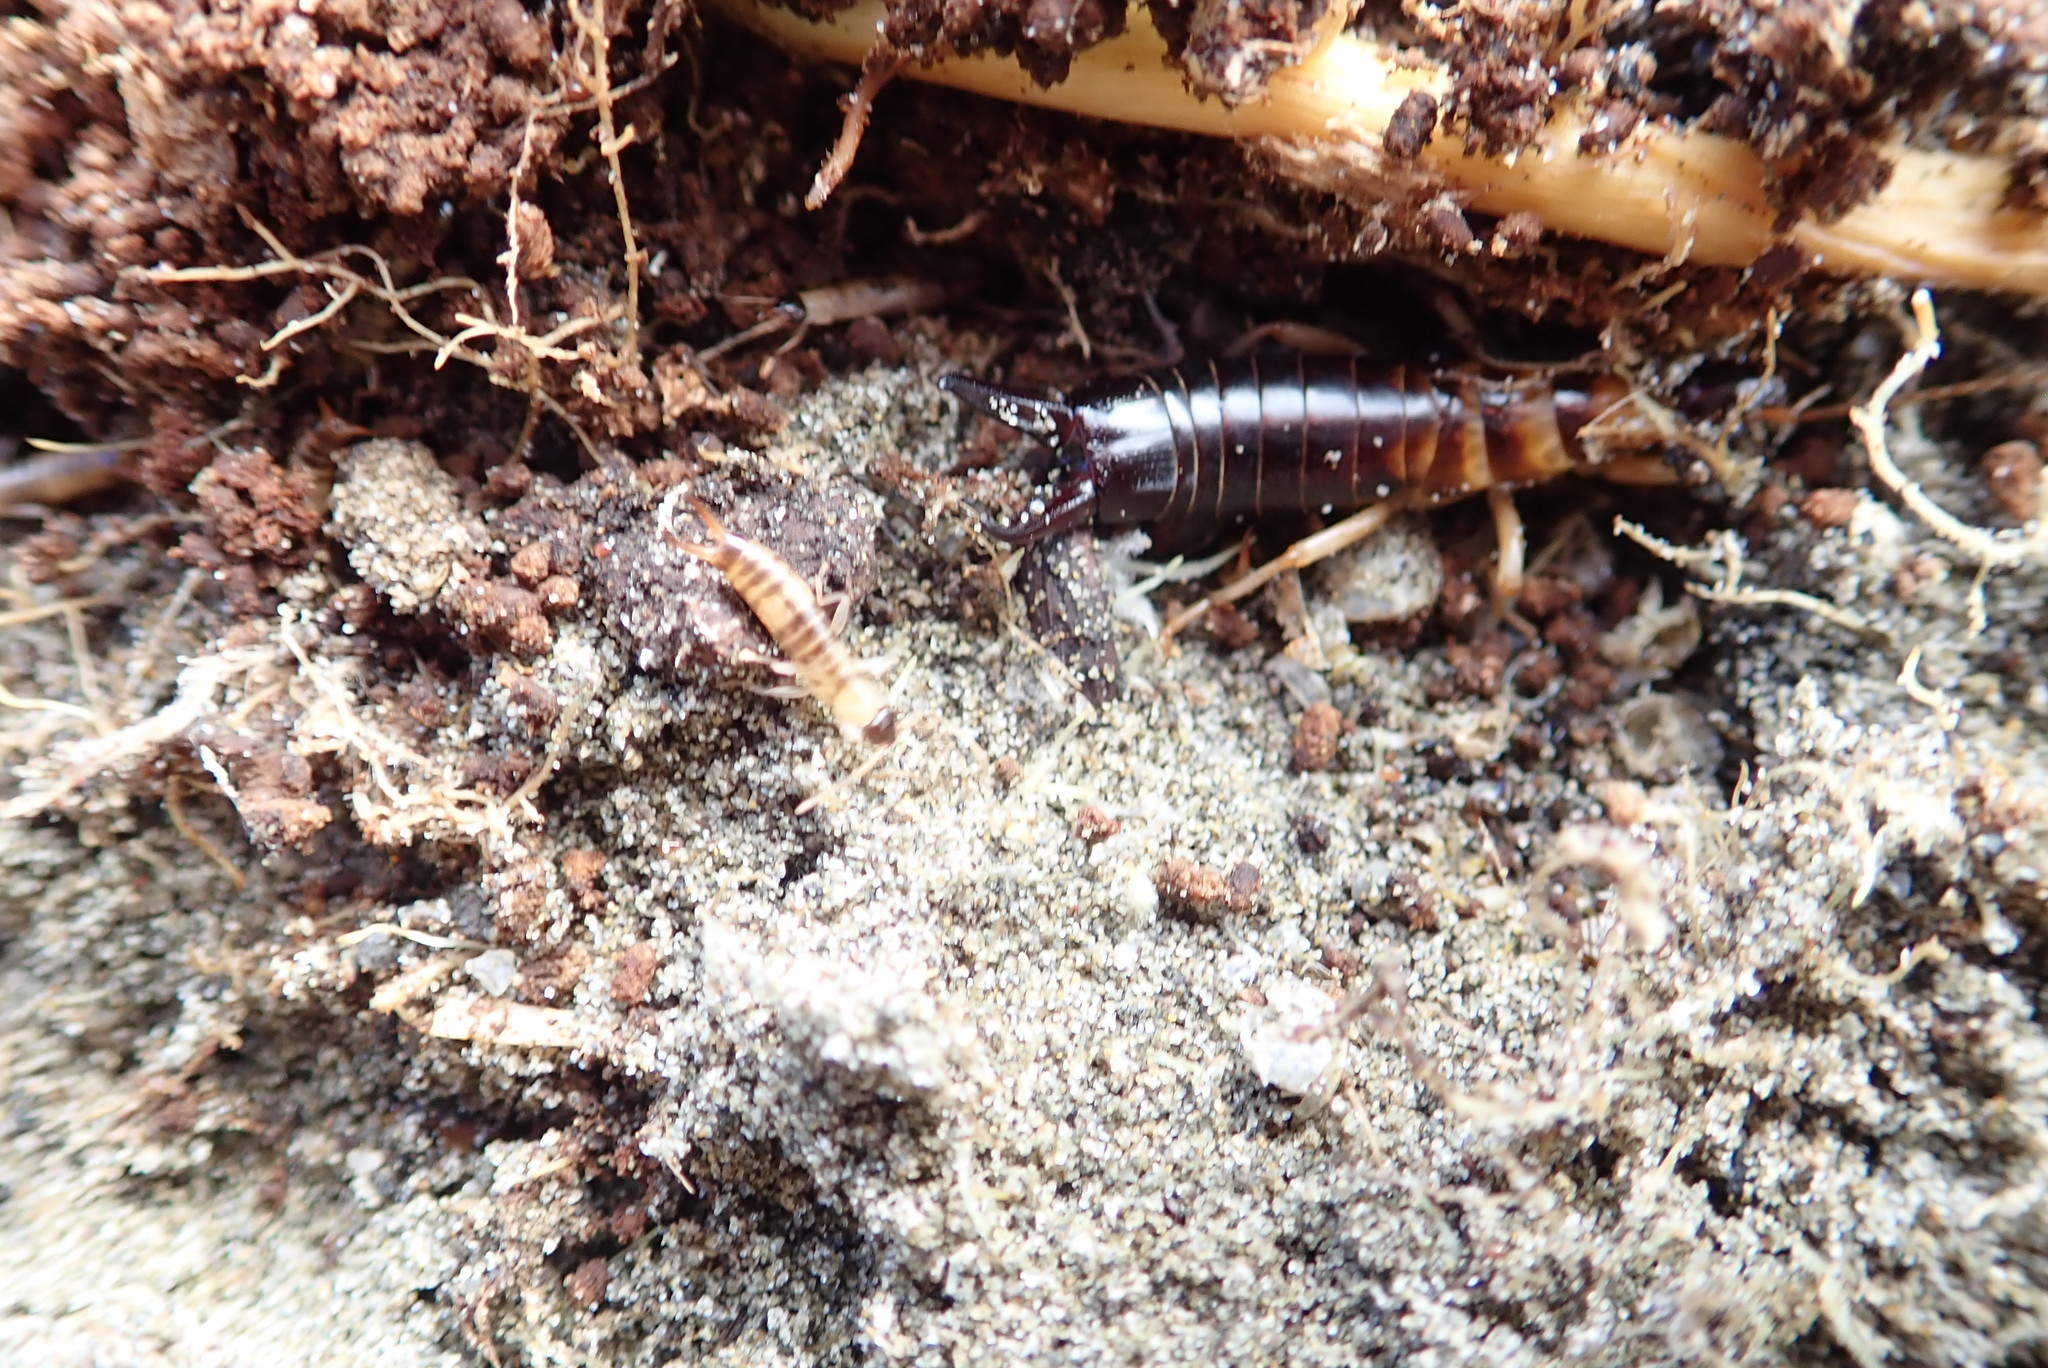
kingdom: Animalia
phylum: Arthropoda
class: Insecta
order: Dermaptera
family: Anisolabididae
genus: Anisolabis
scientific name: Anisolabis littorea
